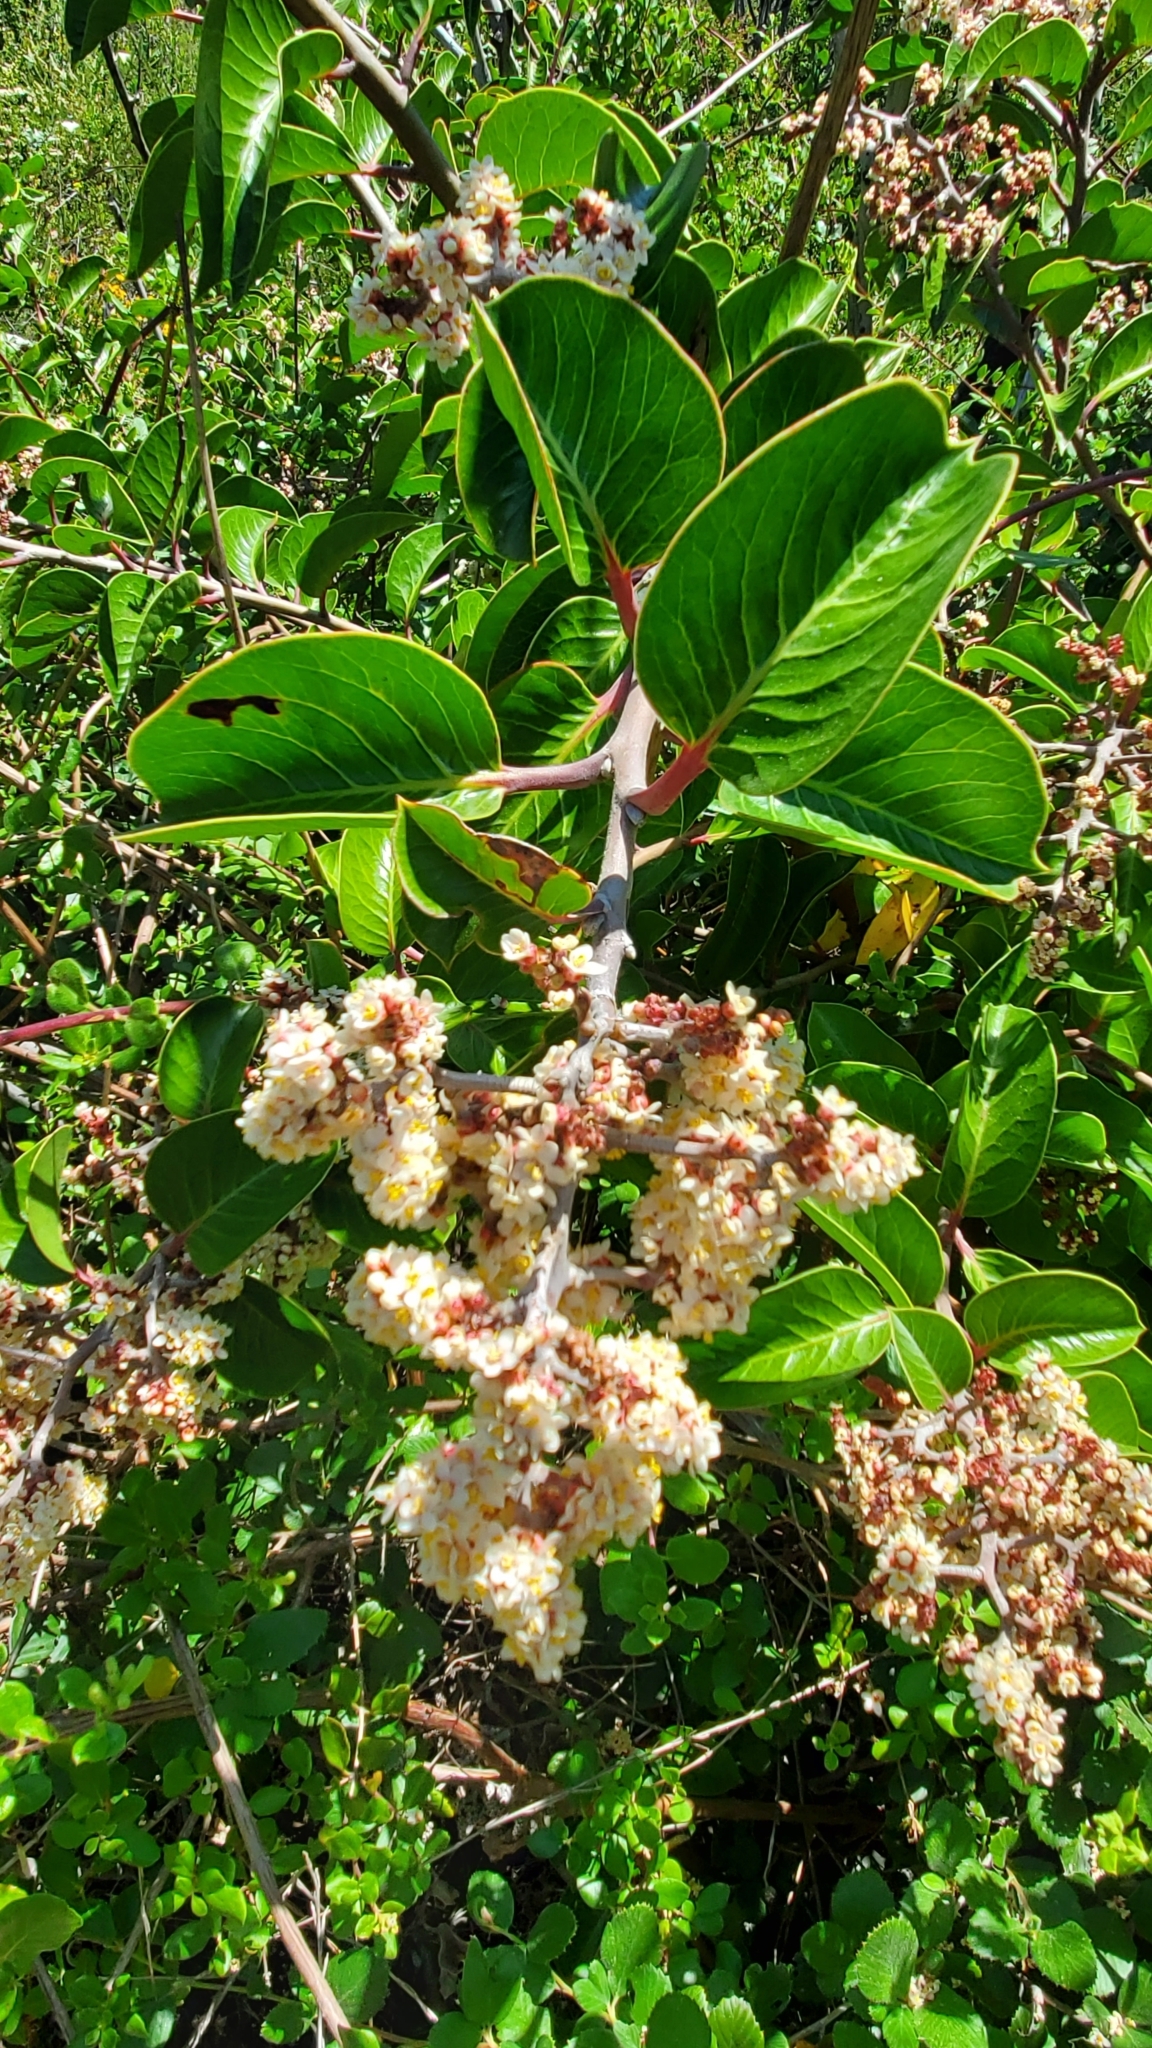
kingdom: Plantae
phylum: Tracheophyta
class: Magnoliopsida
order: Sapindales
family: Anacardiaceae
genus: Rhus
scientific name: Rhus ovata
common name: Sugar sumac
